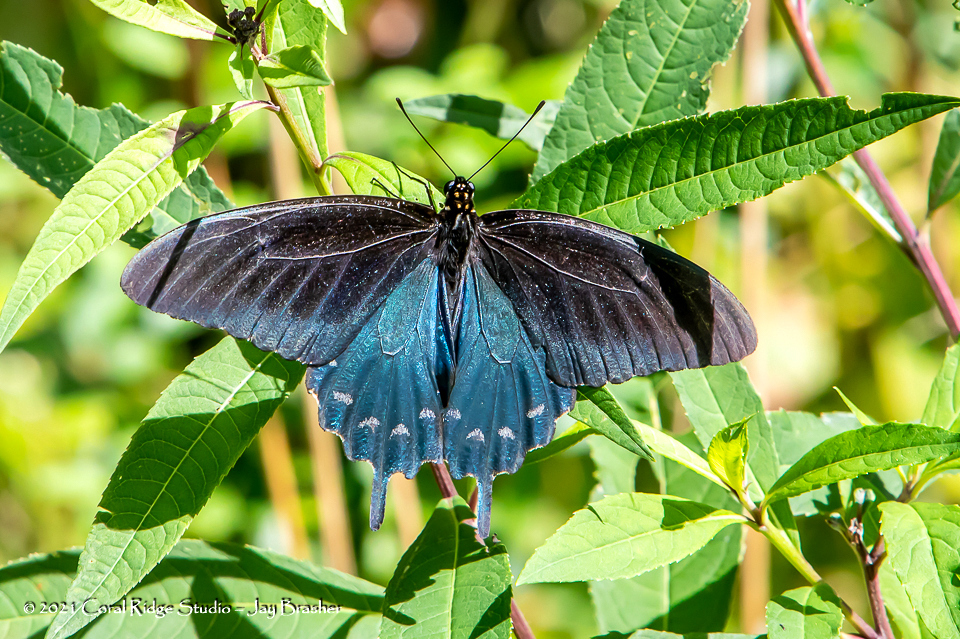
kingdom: Animalia
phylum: Arthropoda
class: Insecta
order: Lepidoptera
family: Papilionidae
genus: Battus
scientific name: Battus philenor
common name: Pipevine swallowtail
